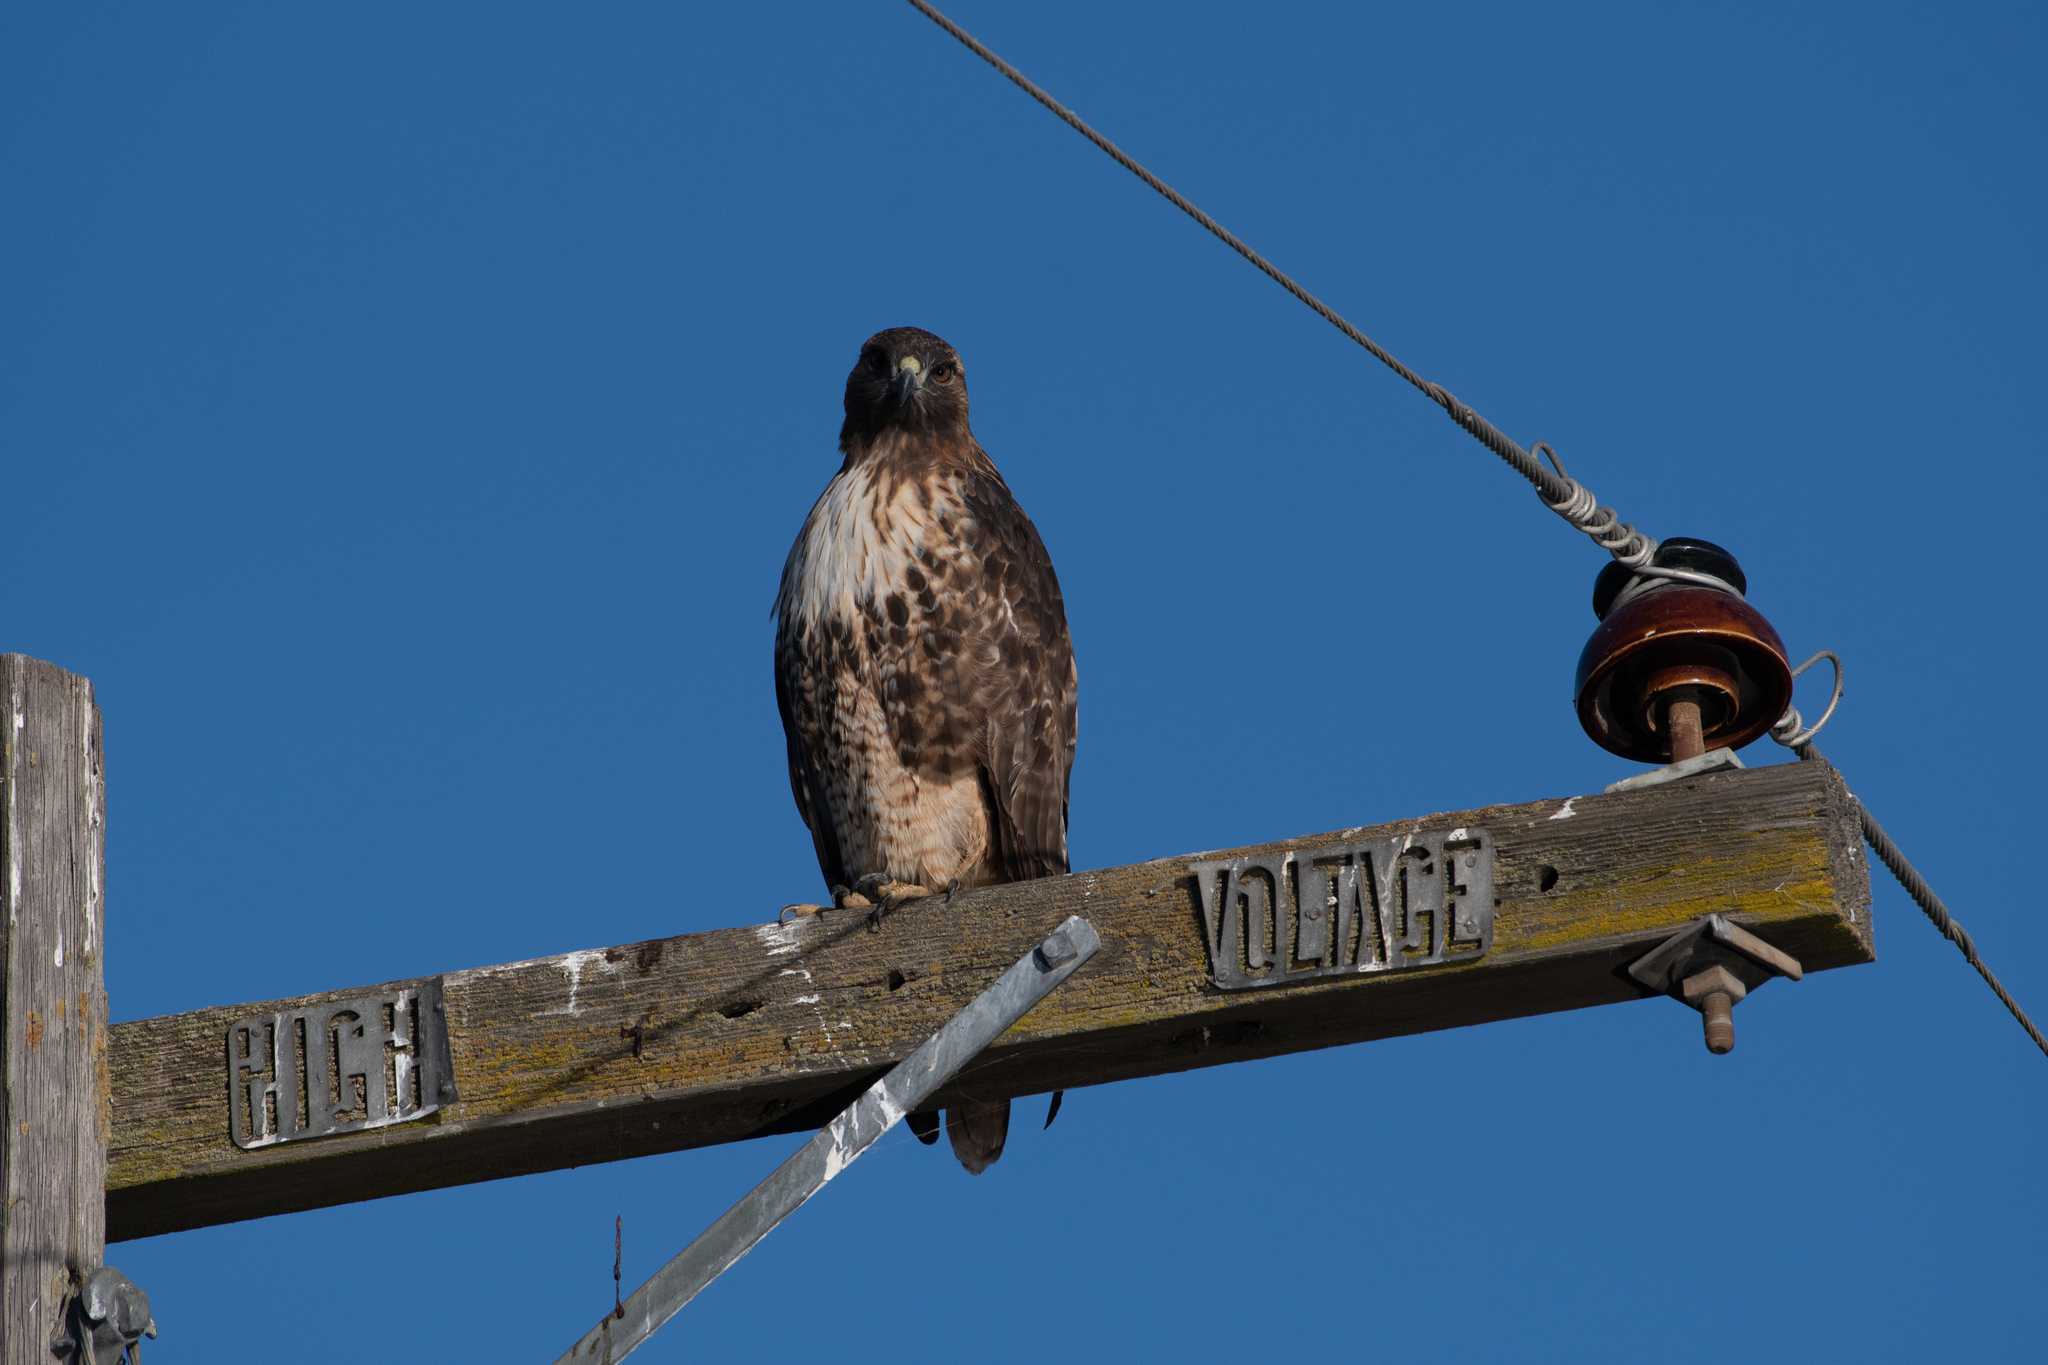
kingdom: Animalia
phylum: Chordata
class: Aves
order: Accipitriformes
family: Accipitridae
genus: Buteo
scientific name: Buteo jamaicensis
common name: Red-tailed hawk
